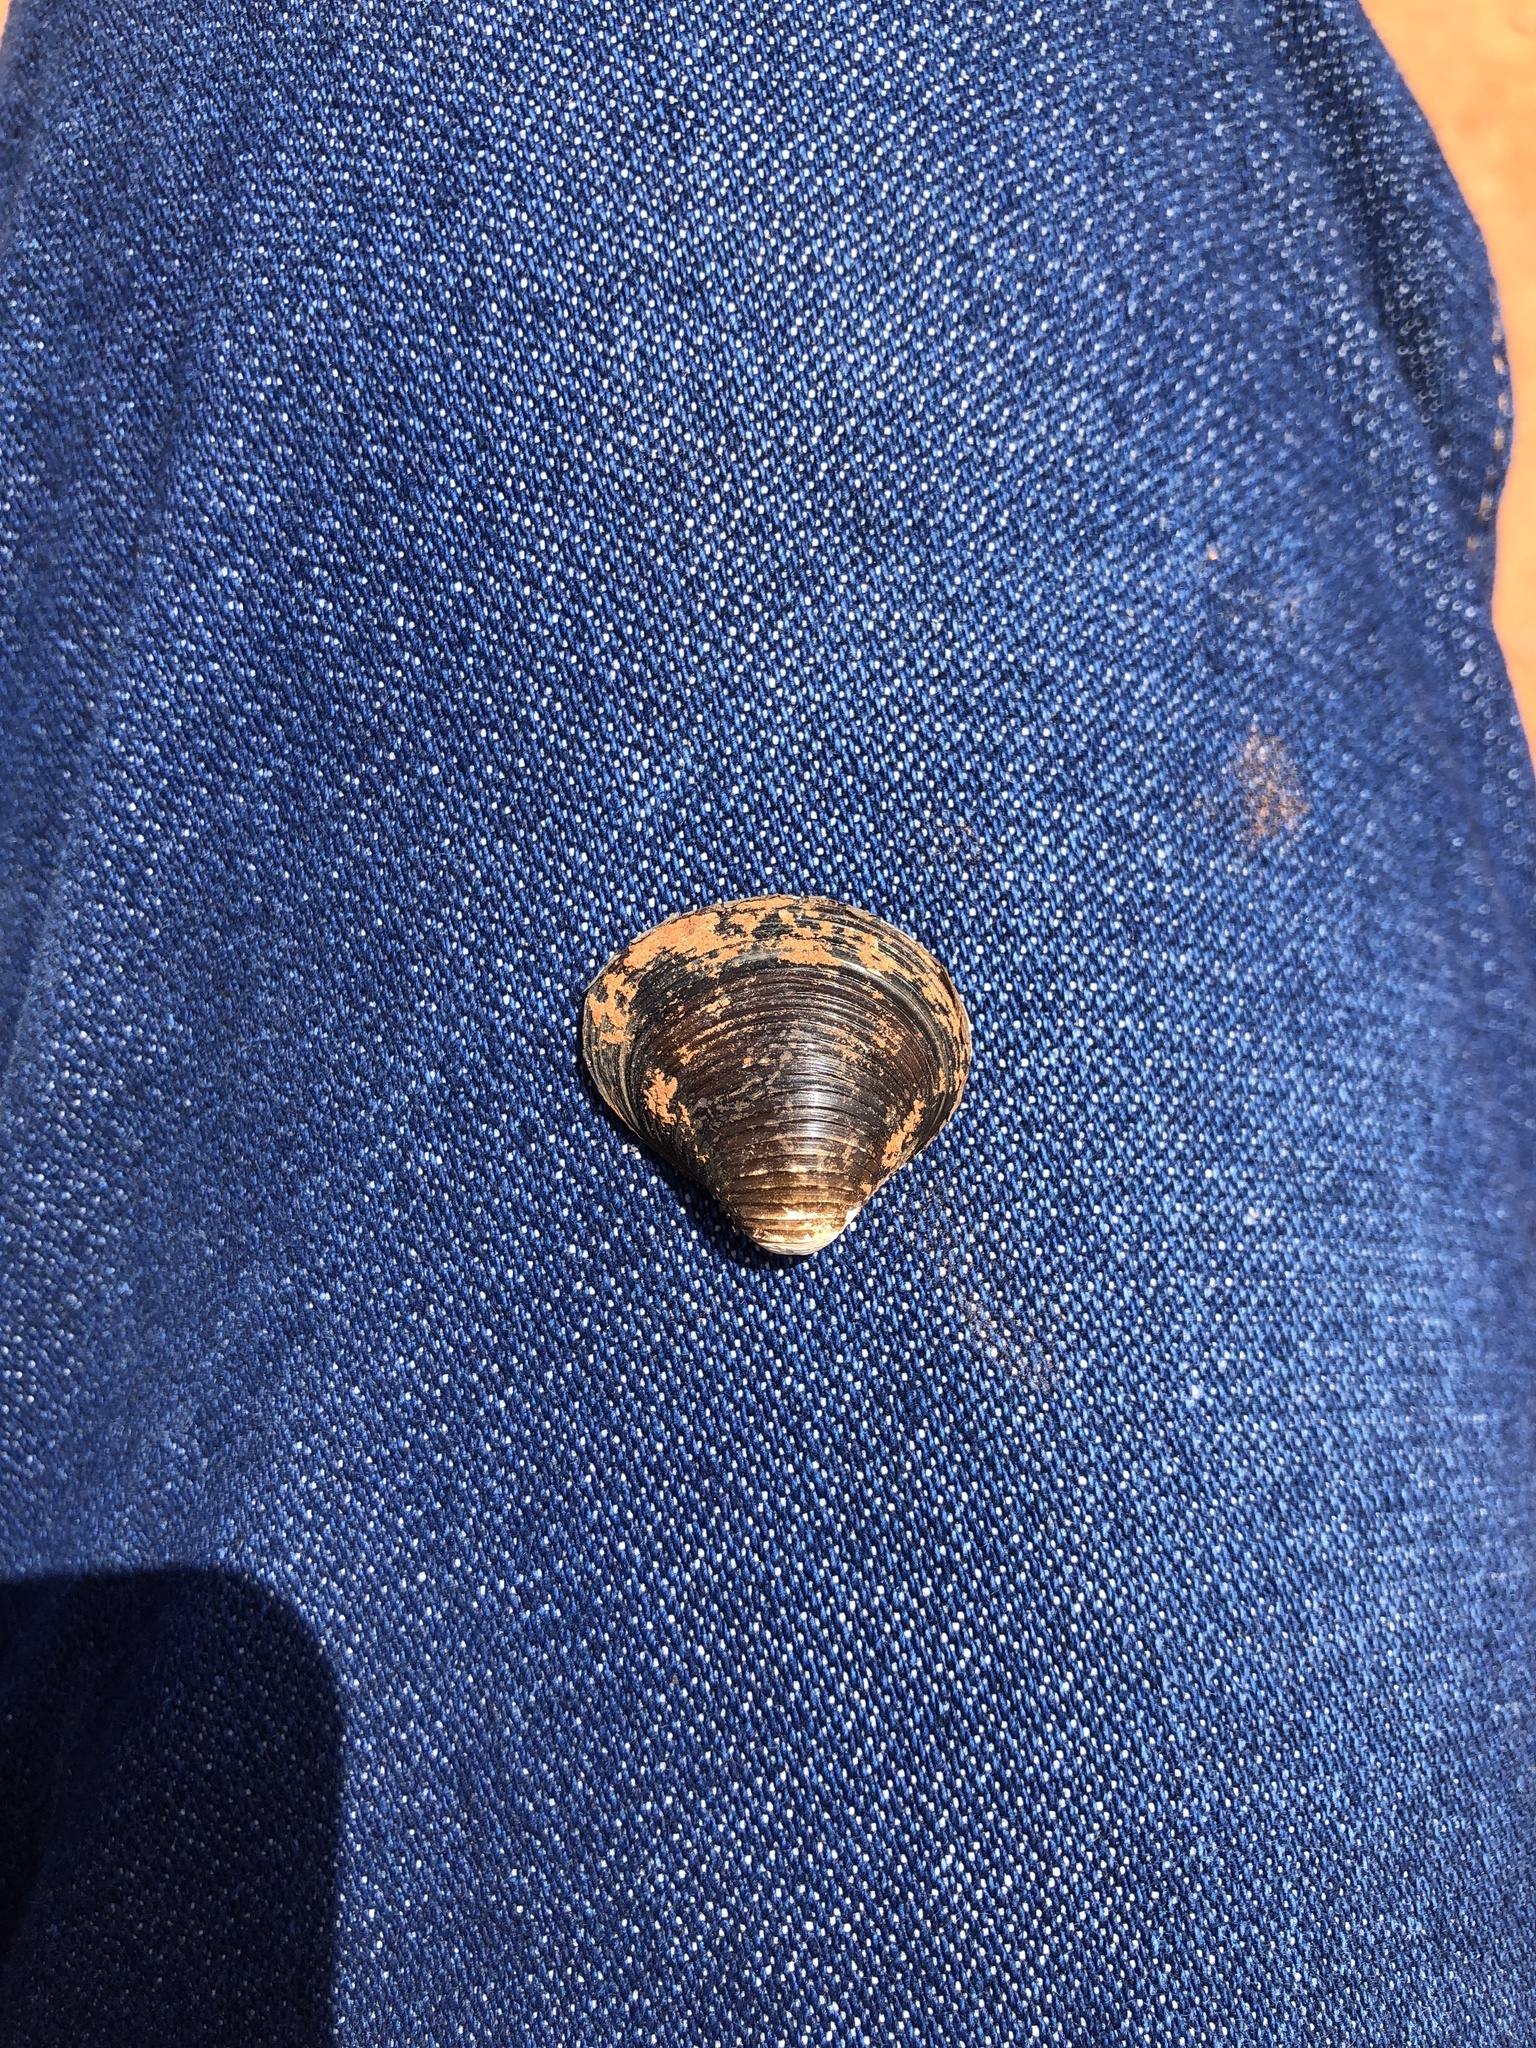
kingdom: Animalia
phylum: Mollusca
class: Bivalvia
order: Venerida
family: Cyrenidae
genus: Corbicula
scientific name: Corbicula fluminea
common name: Asian clam
